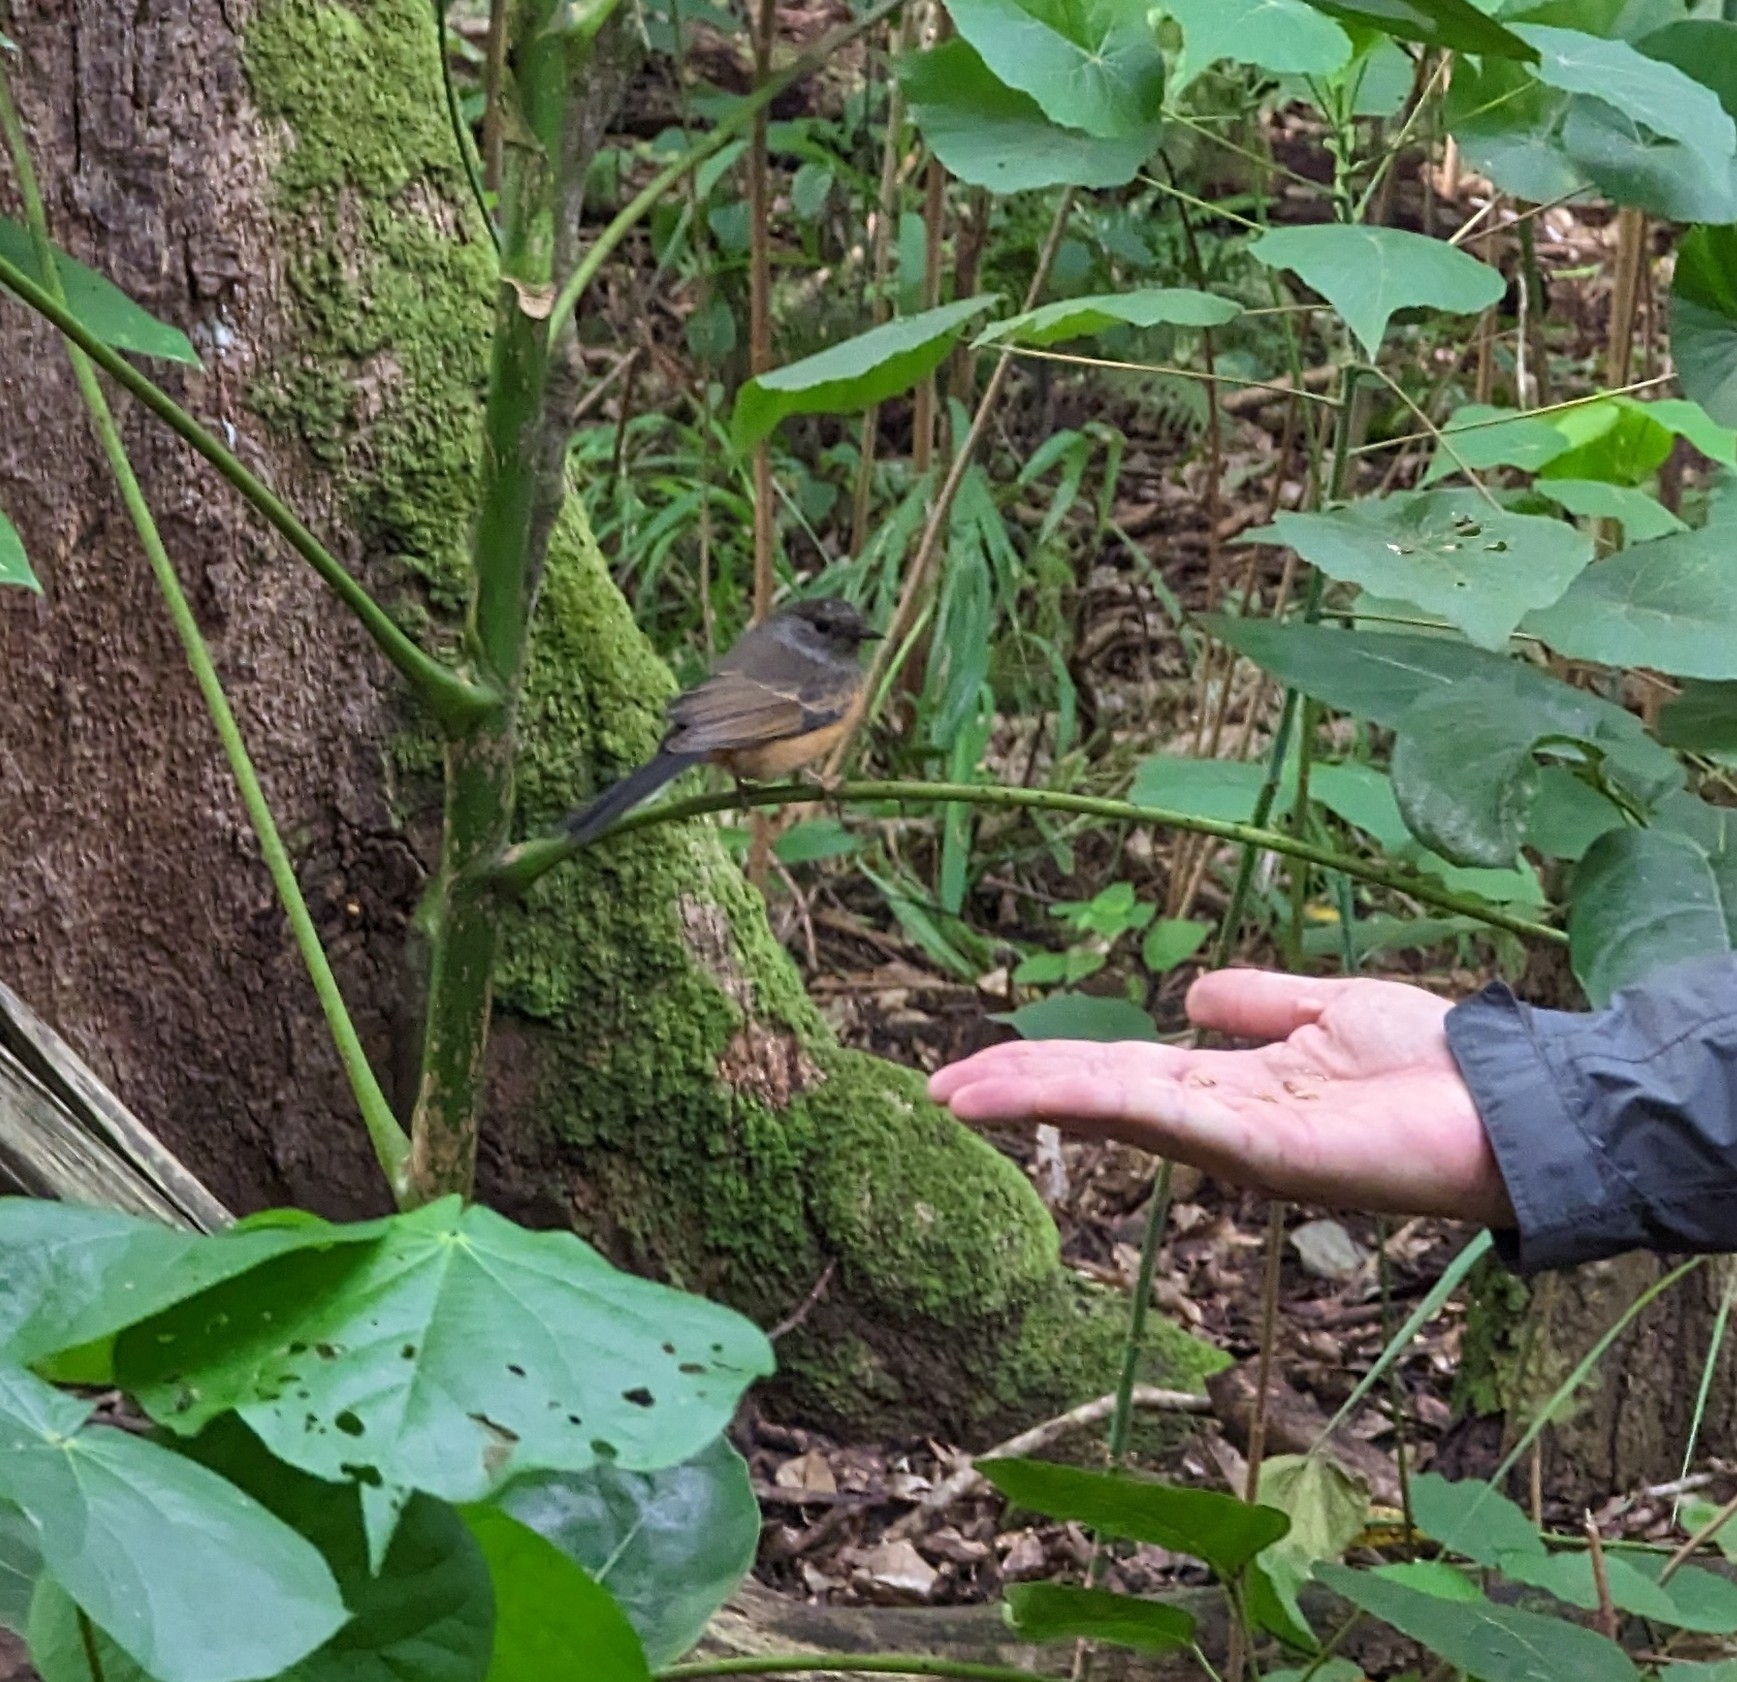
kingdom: Animalia
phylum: Chordata
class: Aves
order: Passeriformes
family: Muscicapidae
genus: Copsychus
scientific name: Copsychus malabaricus
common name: White-rumped shama
